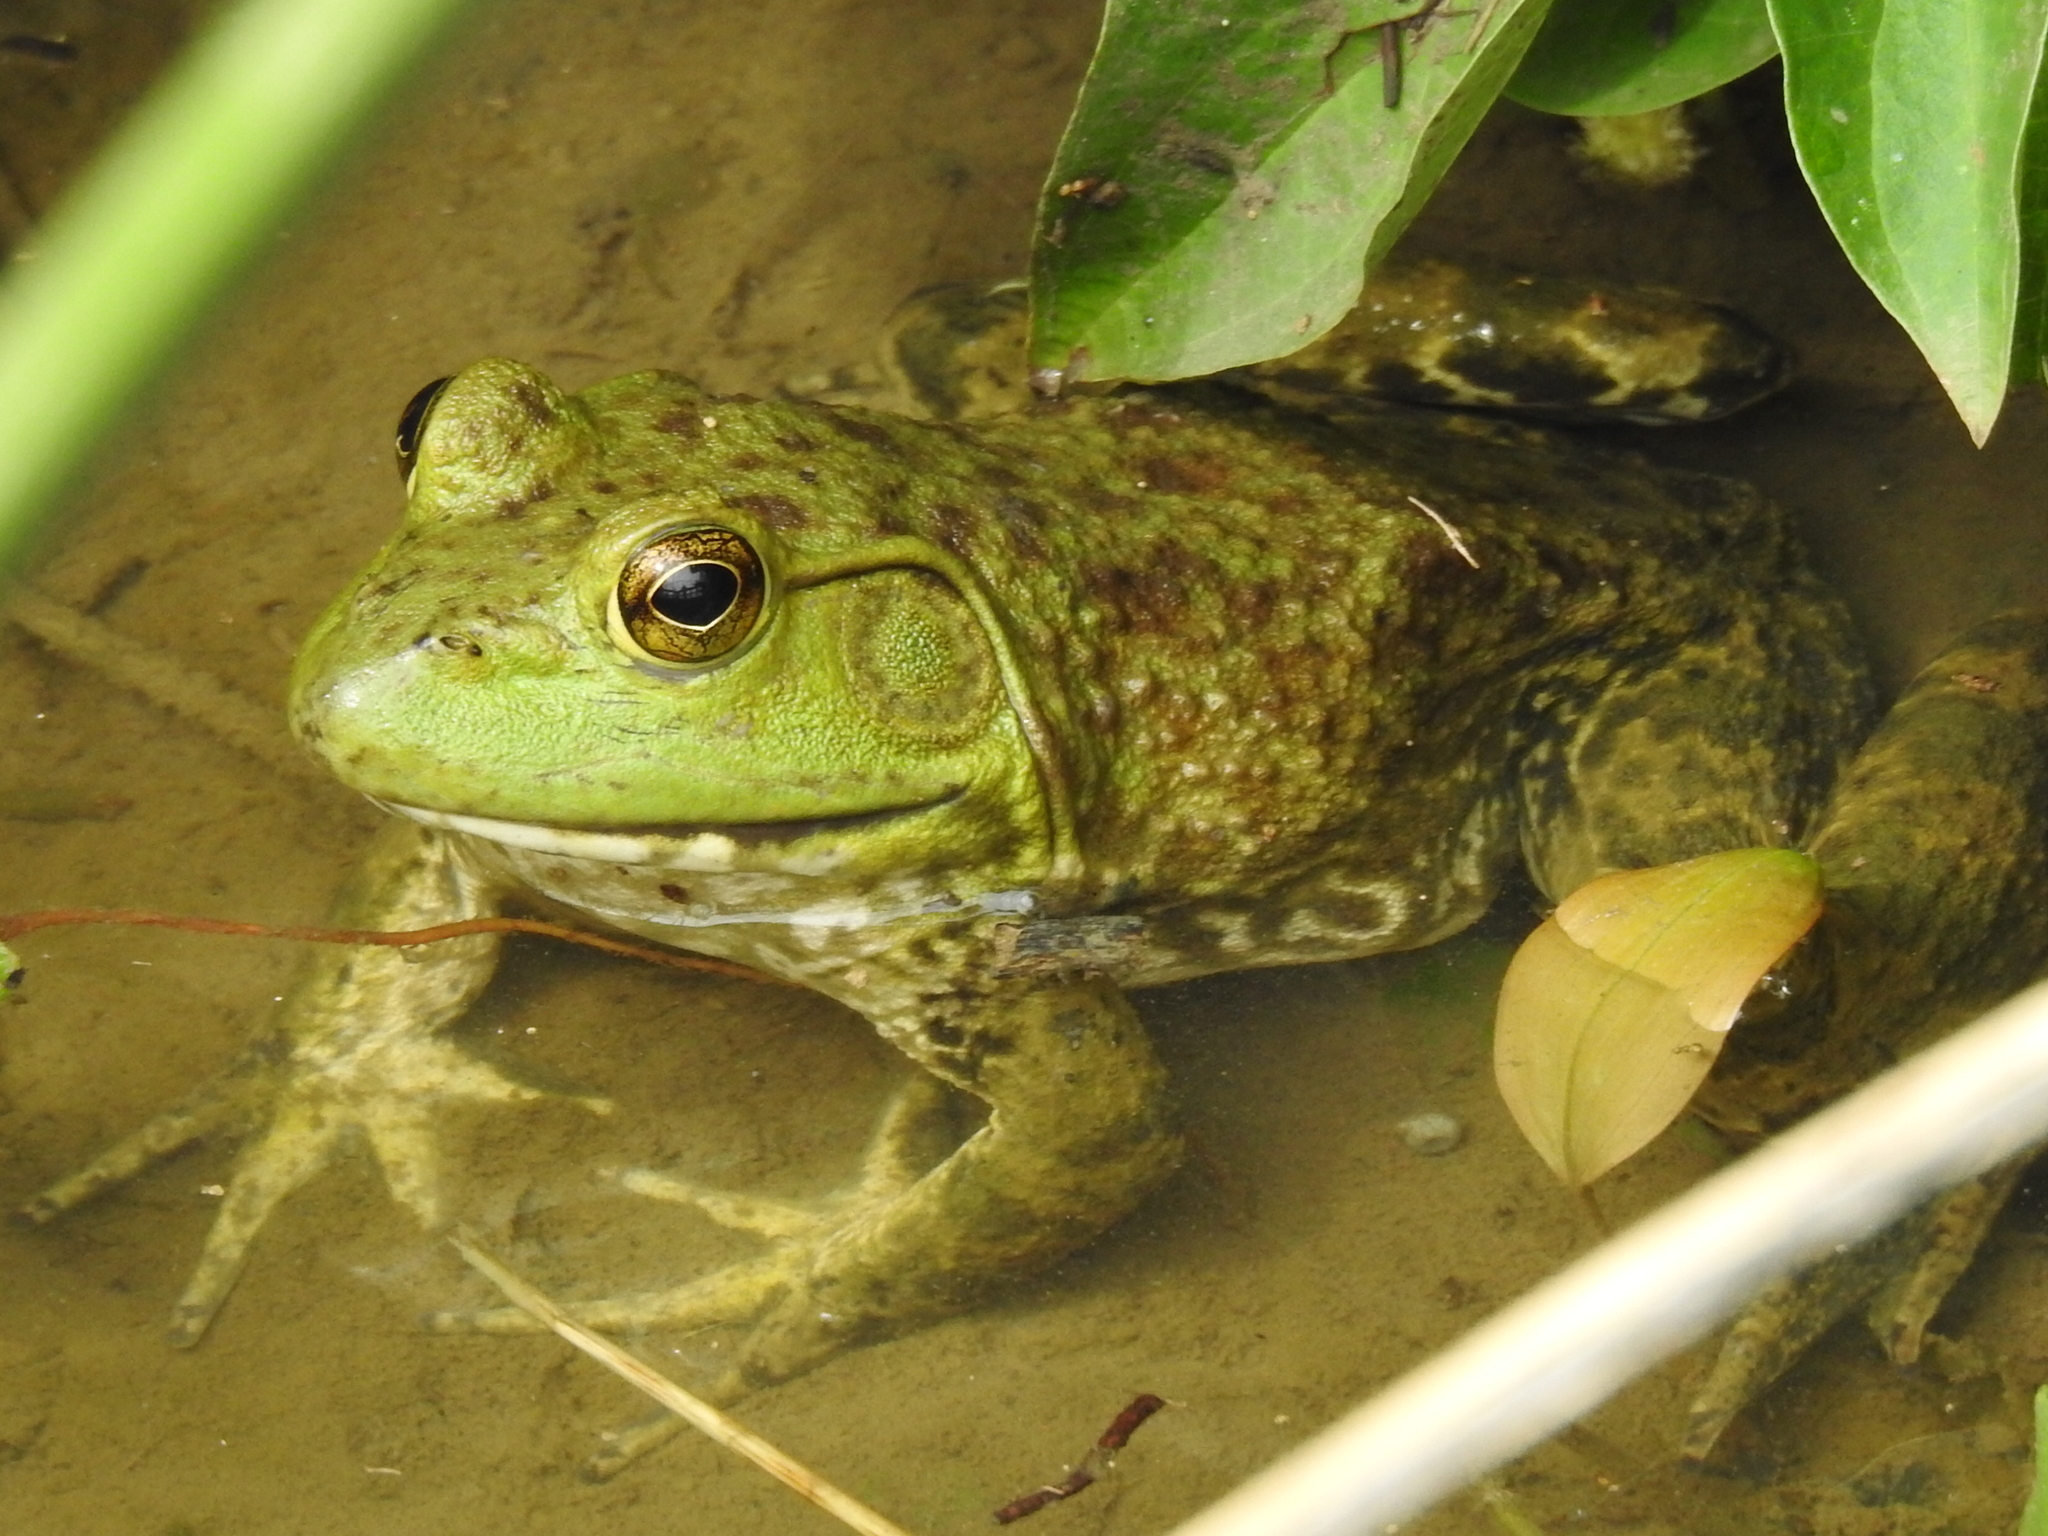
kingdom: Animalia
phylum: Chordata
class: Amphibia
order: Anura
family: Ranidae
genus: Lithobates
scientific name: Lithobates catesbeianus
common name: American bullfrog
